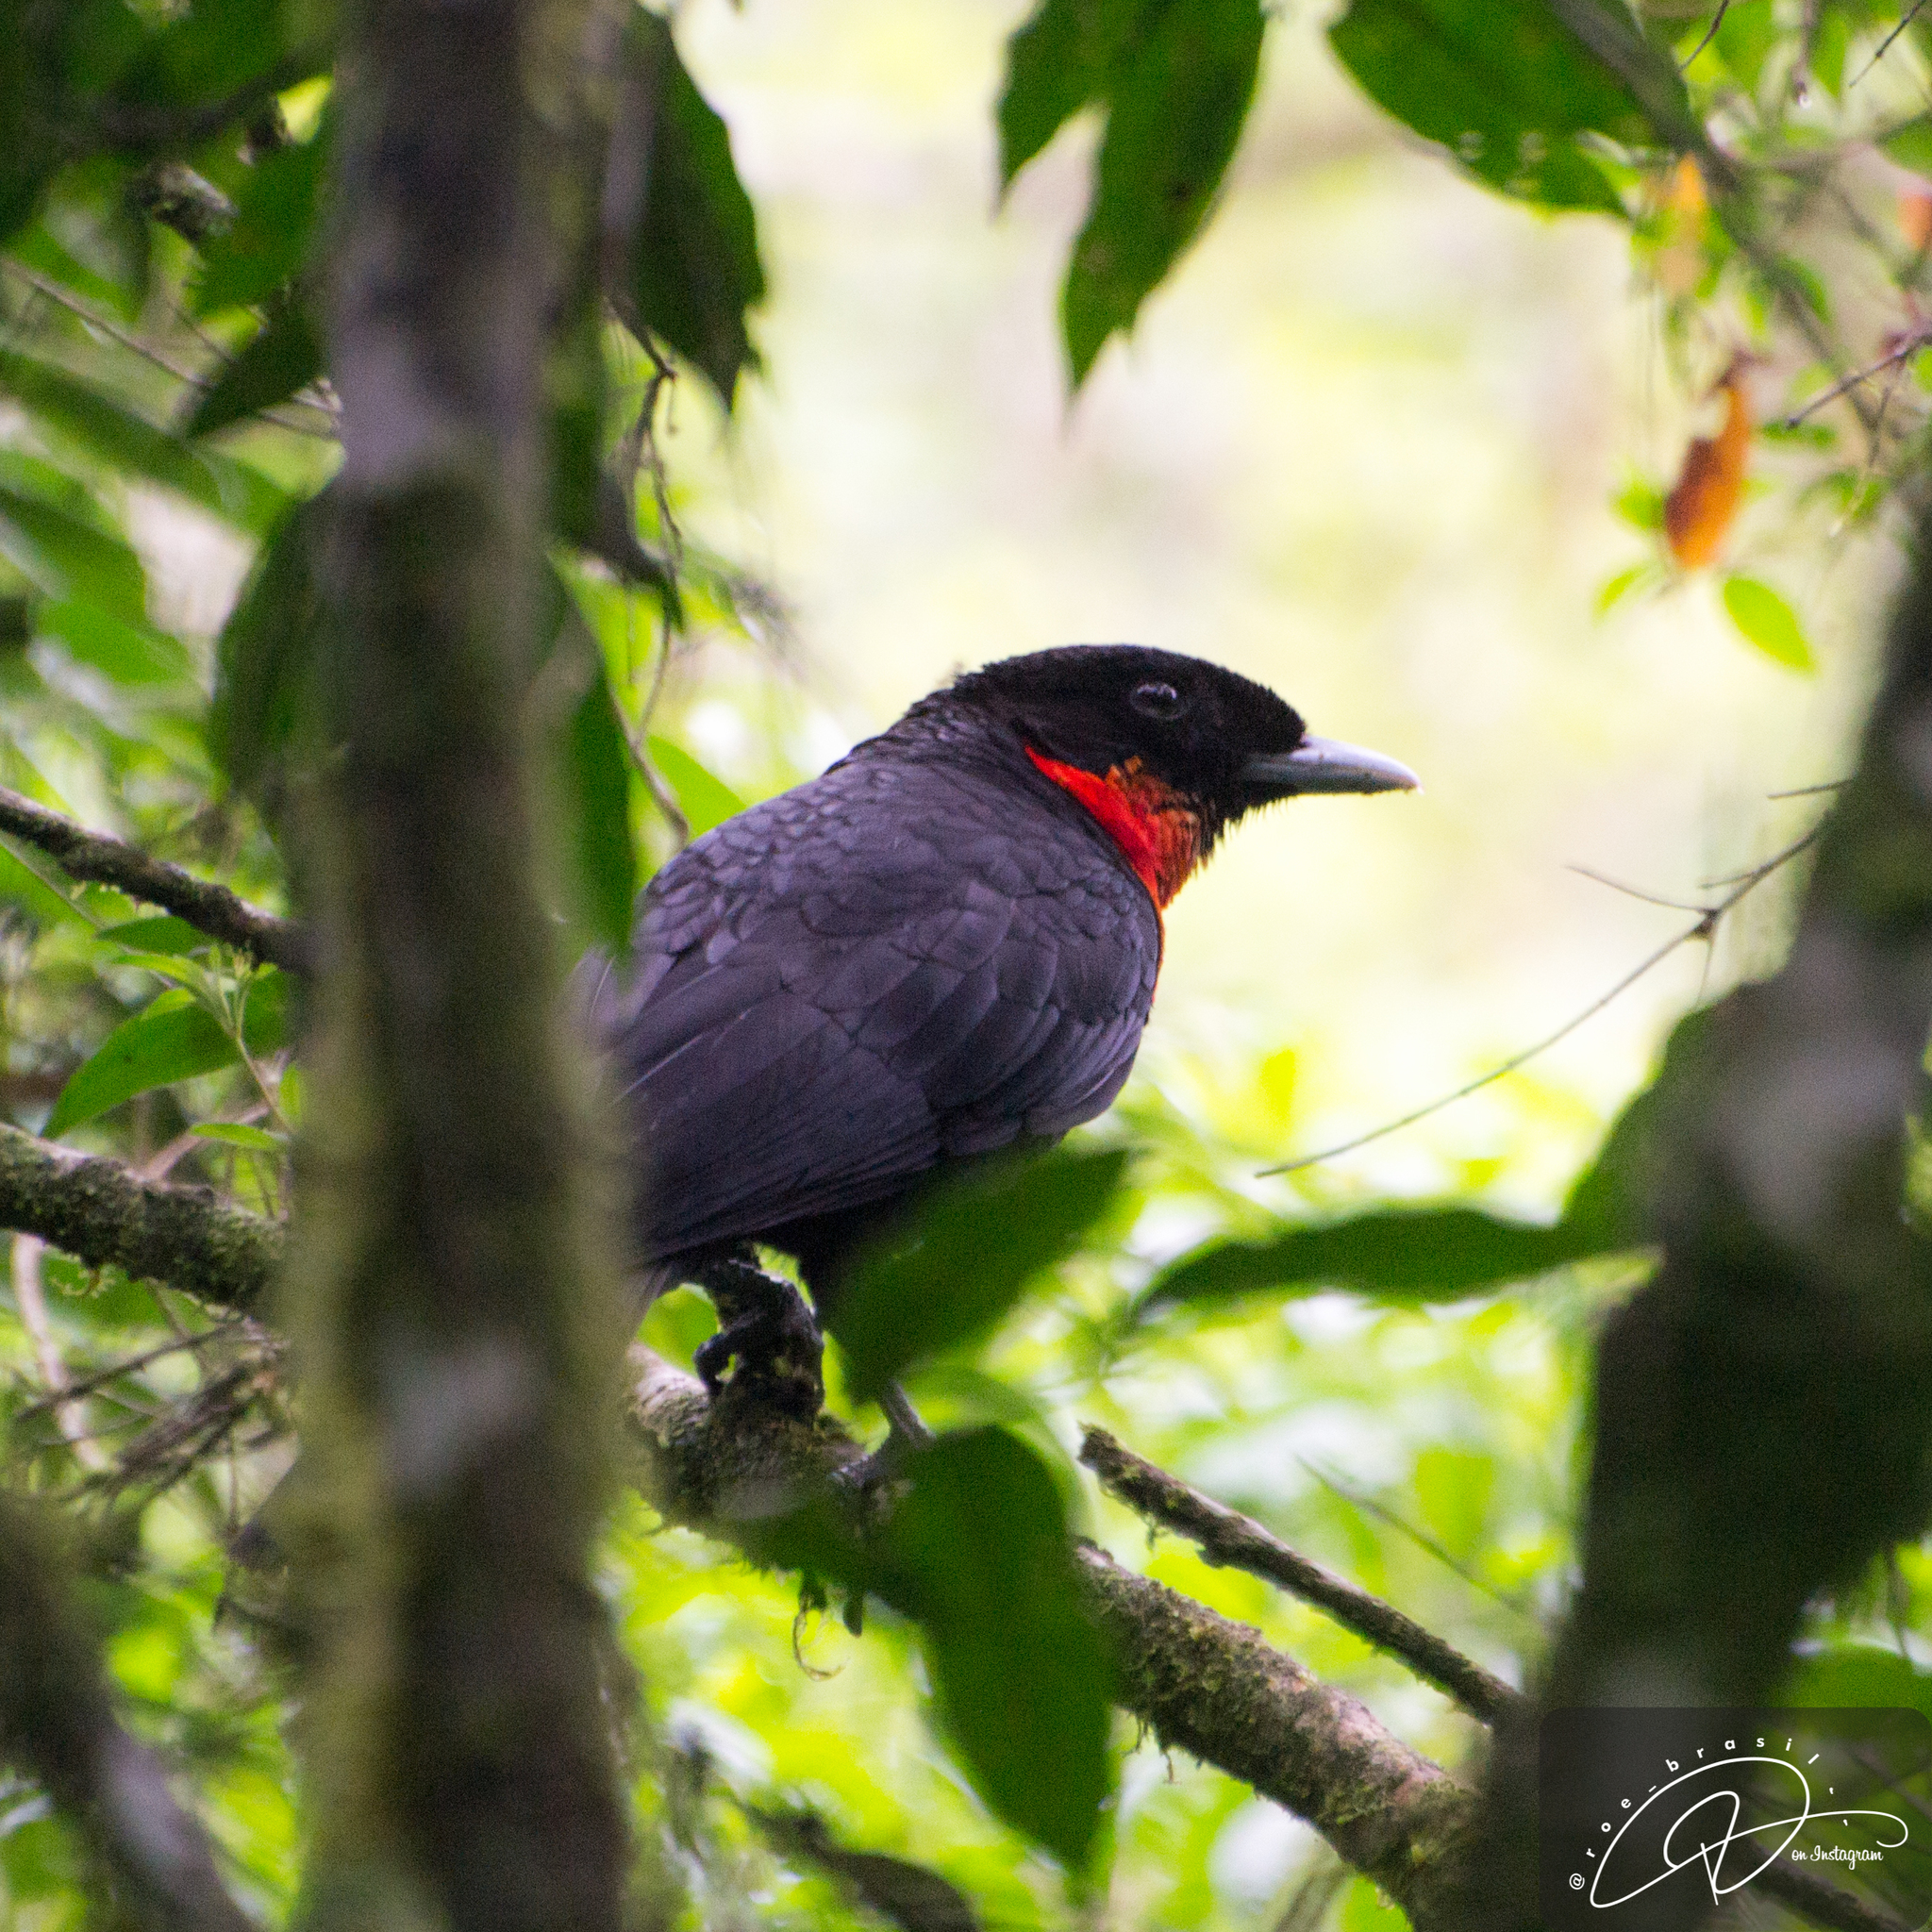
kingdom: Animalia
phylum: Chordata
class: Aves
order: Passeriformes
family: Cotingidae
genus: Pyroderus
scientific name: Pyroderus scutatus
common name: Red-ruffed fruitcrow
